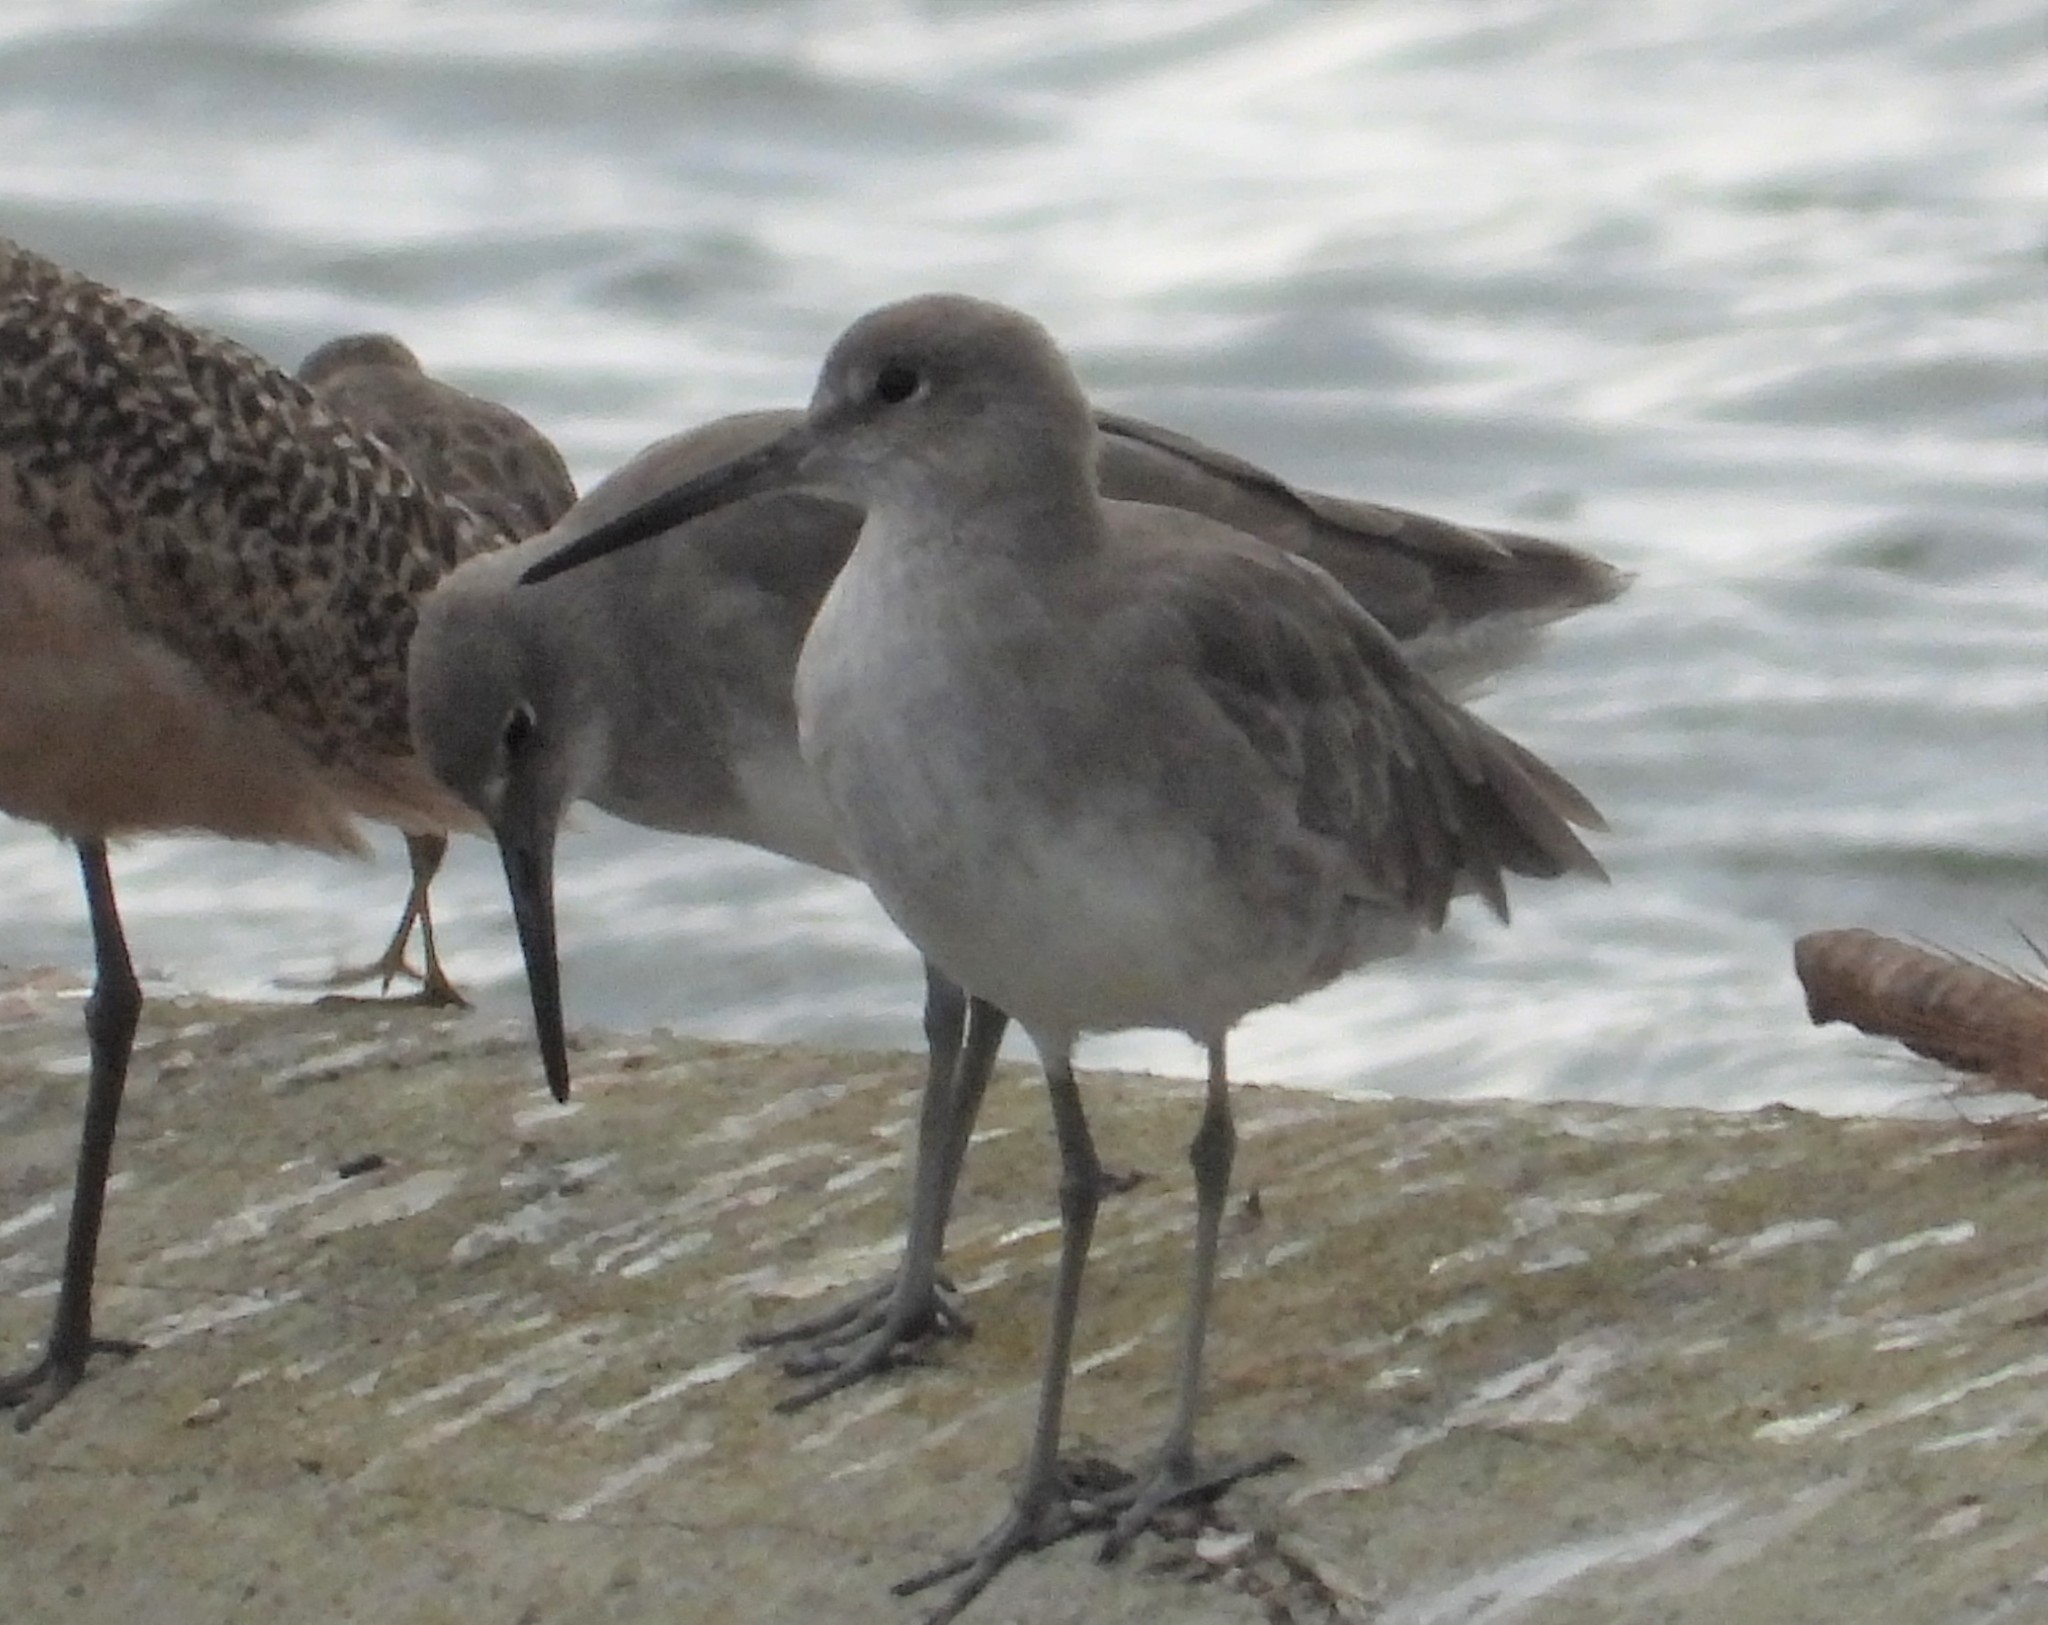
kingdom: Animalia
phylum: Chordata
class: Aves
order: Charadriiformes
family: Scolopacidae
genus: Tringa
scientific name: Tringa semipalmata
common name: Willet
